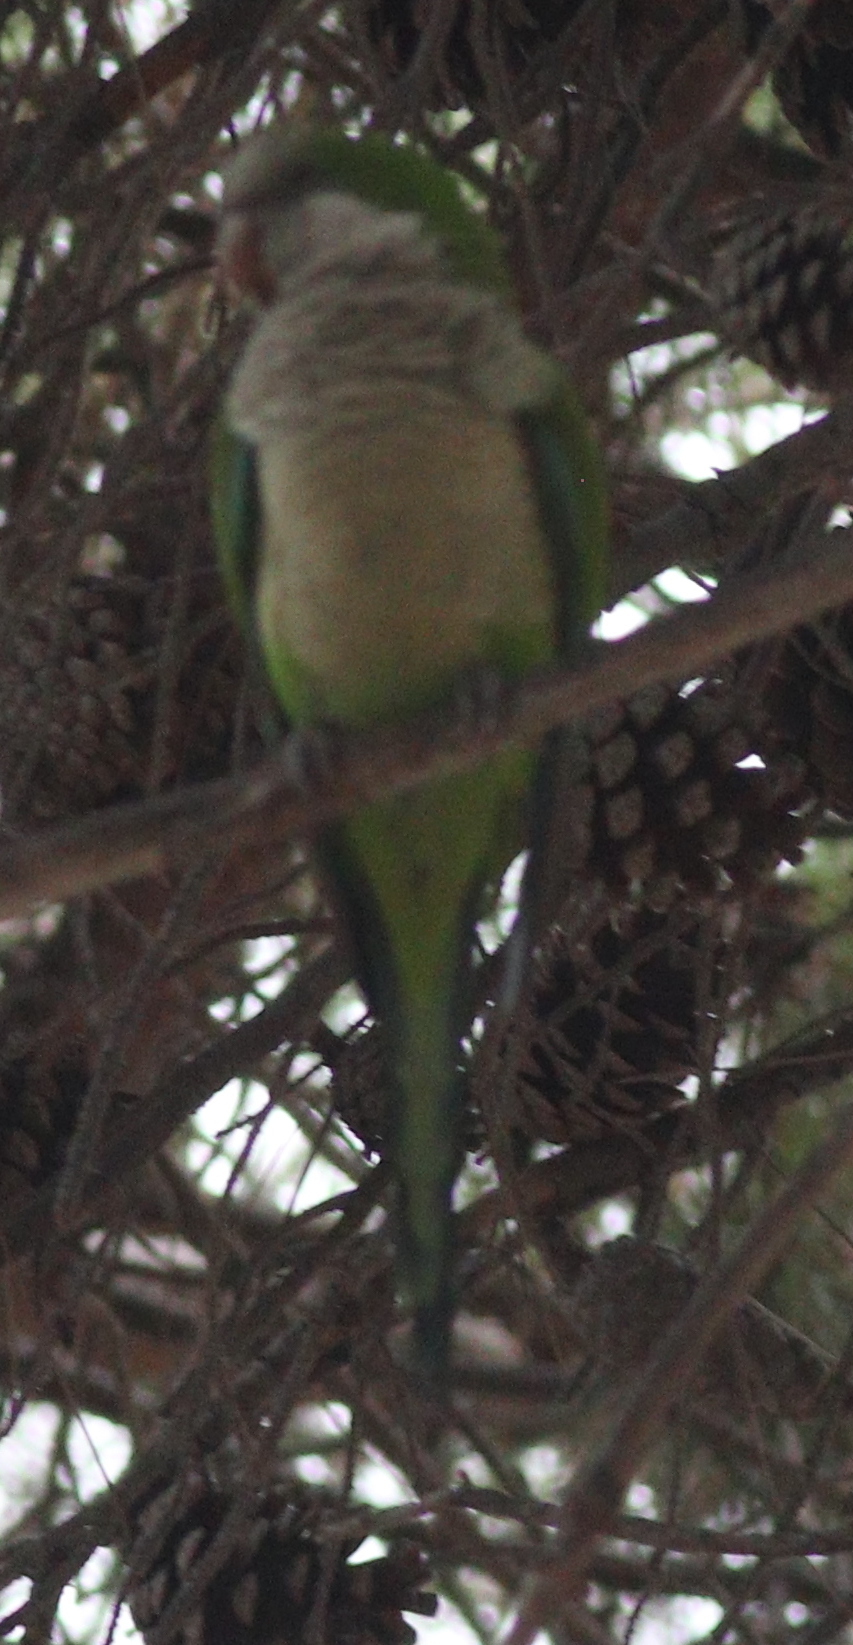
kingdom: Animalia
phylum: Chordata
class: Aves
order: Psittaciformes
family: Psittacidae
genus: Myiopsitta
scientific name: Myiopsitta monachus
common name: Monk parakeet
